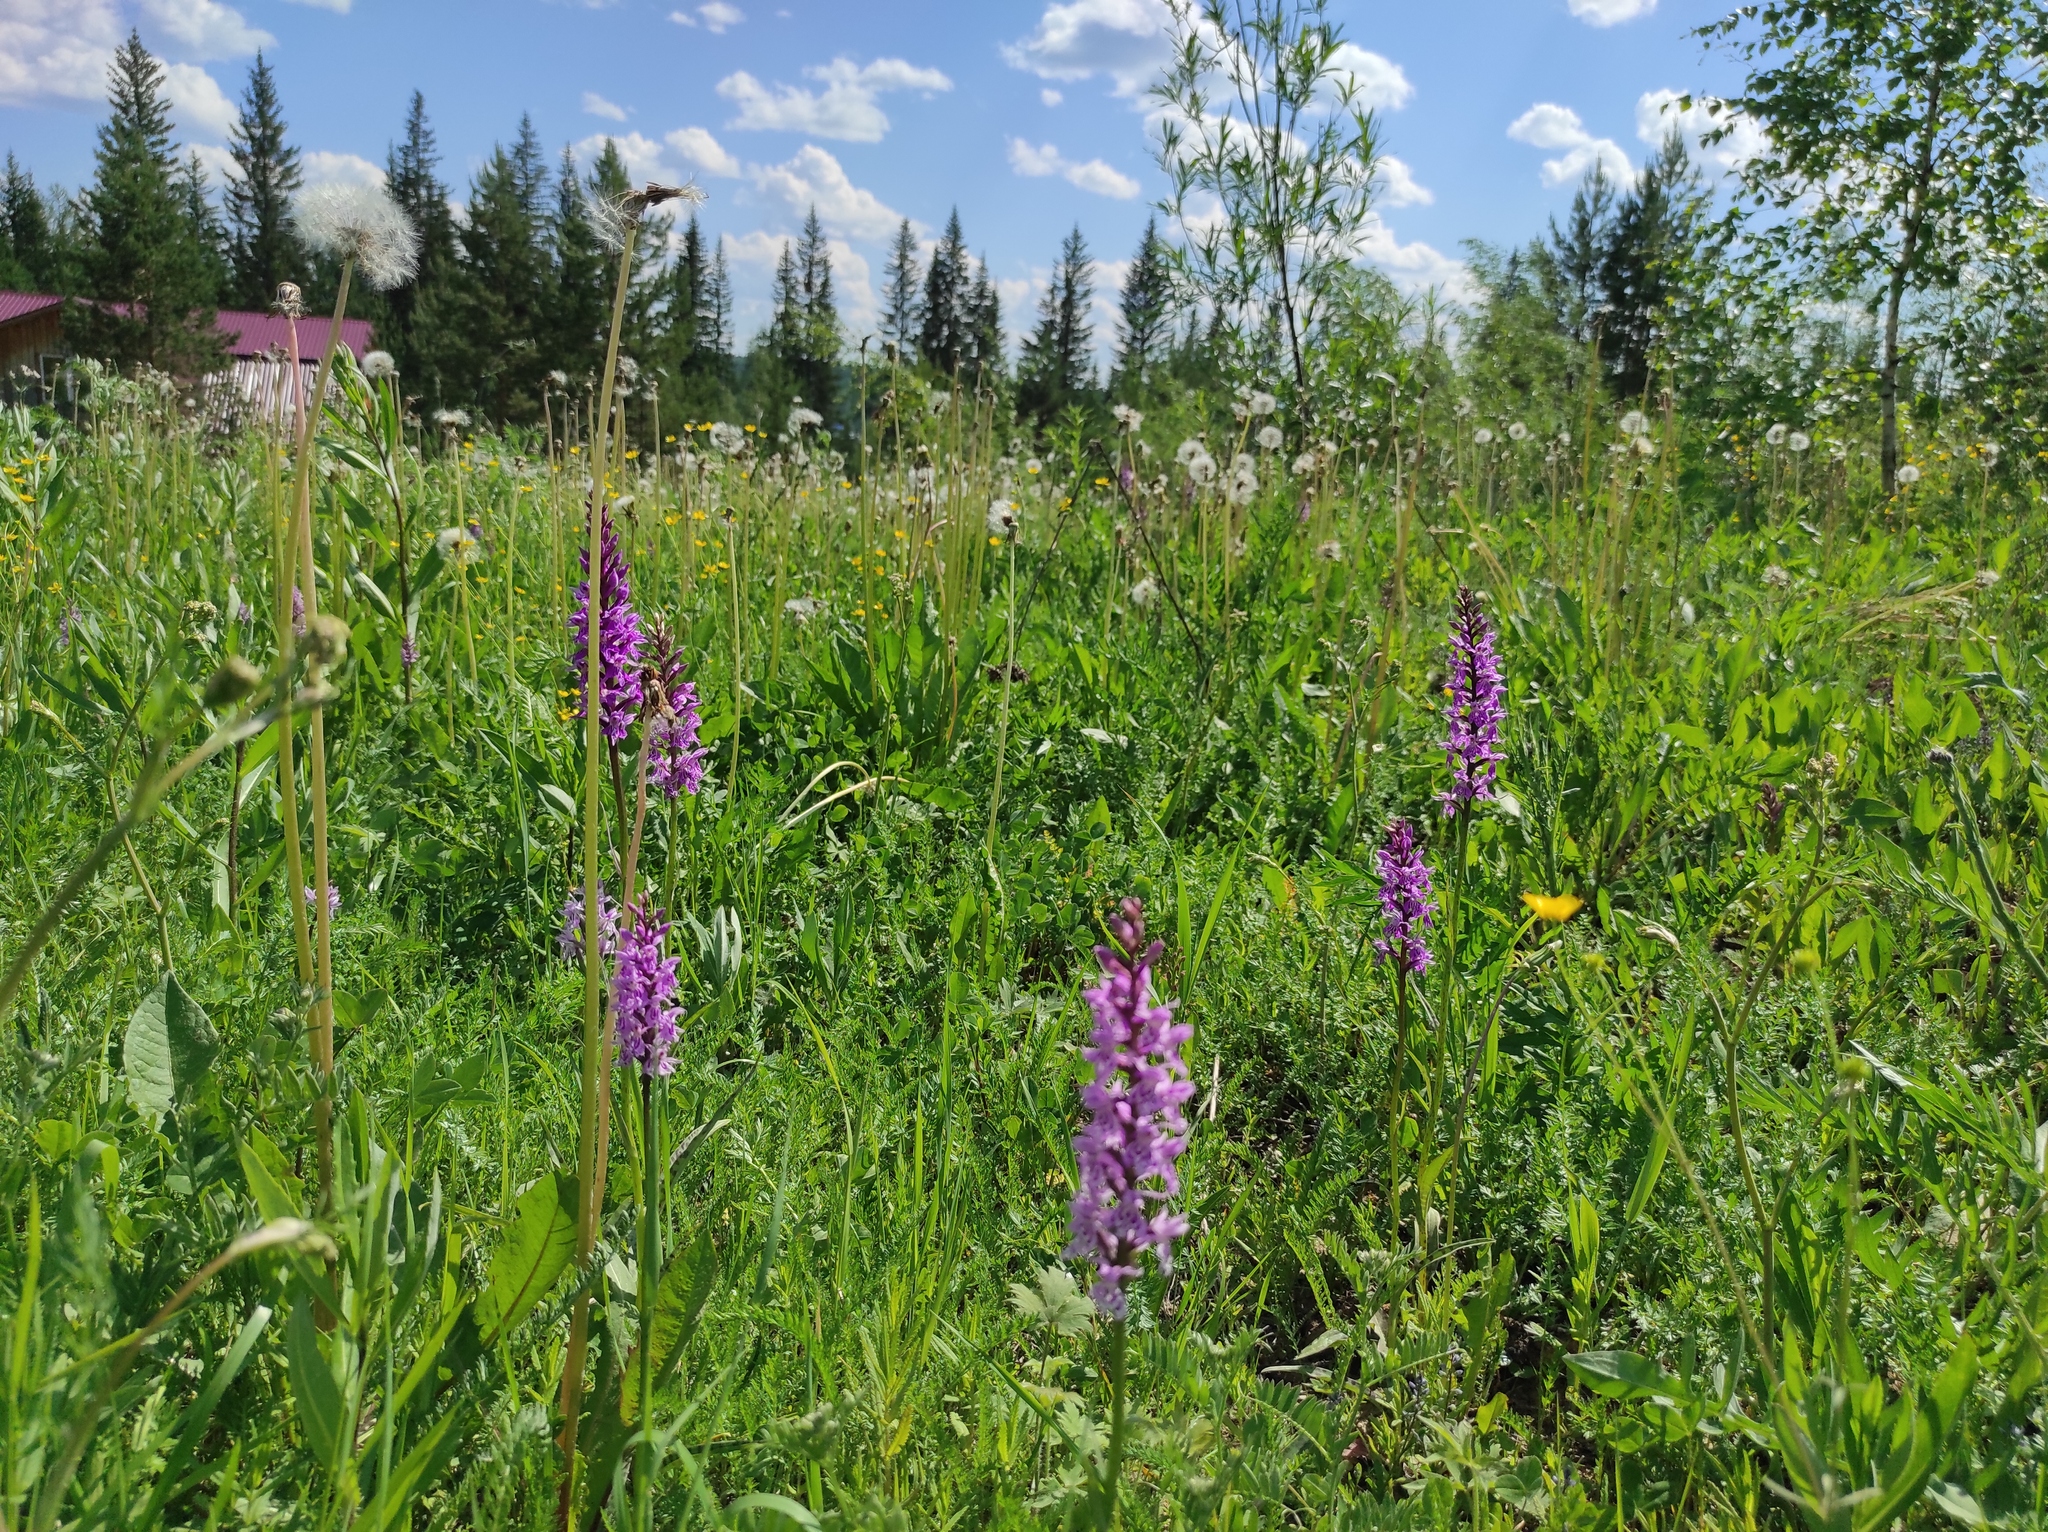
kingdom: Plantae
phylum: Tracheophyta
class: Liliopsida
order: Asparagales
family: Orchidaceae
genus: Dactylorhiza
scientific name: Dactylorhiza maculata
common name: Heath spotted-orchid
